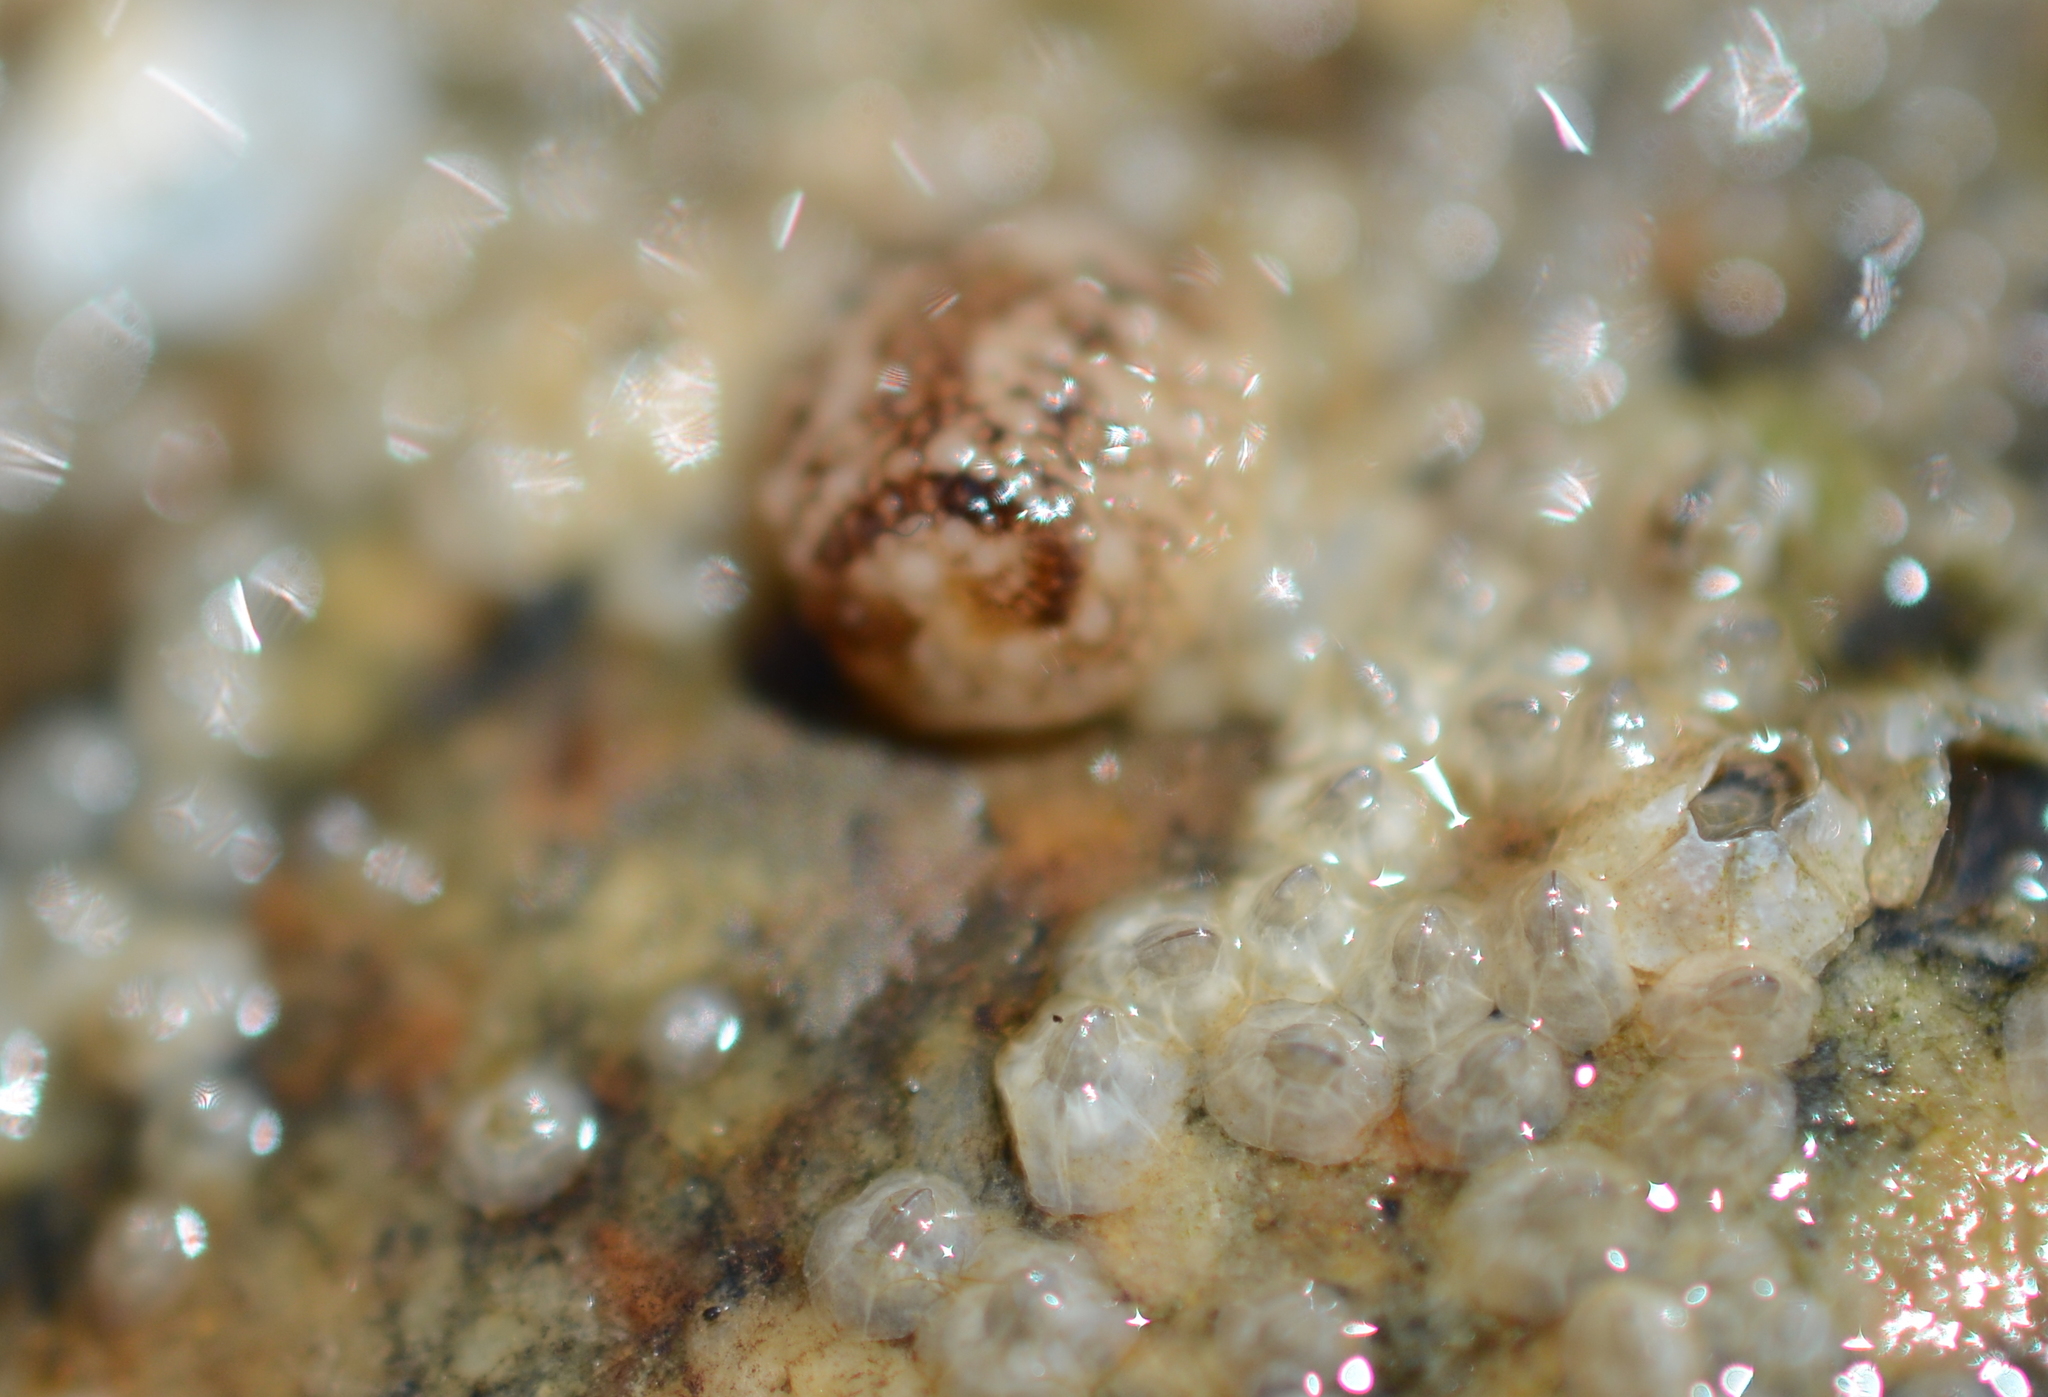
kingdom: Animalia
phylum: Mollusca
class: Gastropoda
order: Nudibranchia
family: Onchidorididae
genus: Onchidoris
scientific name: Onchidoris bilamellata
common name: Barnacle-eating onchidoris
